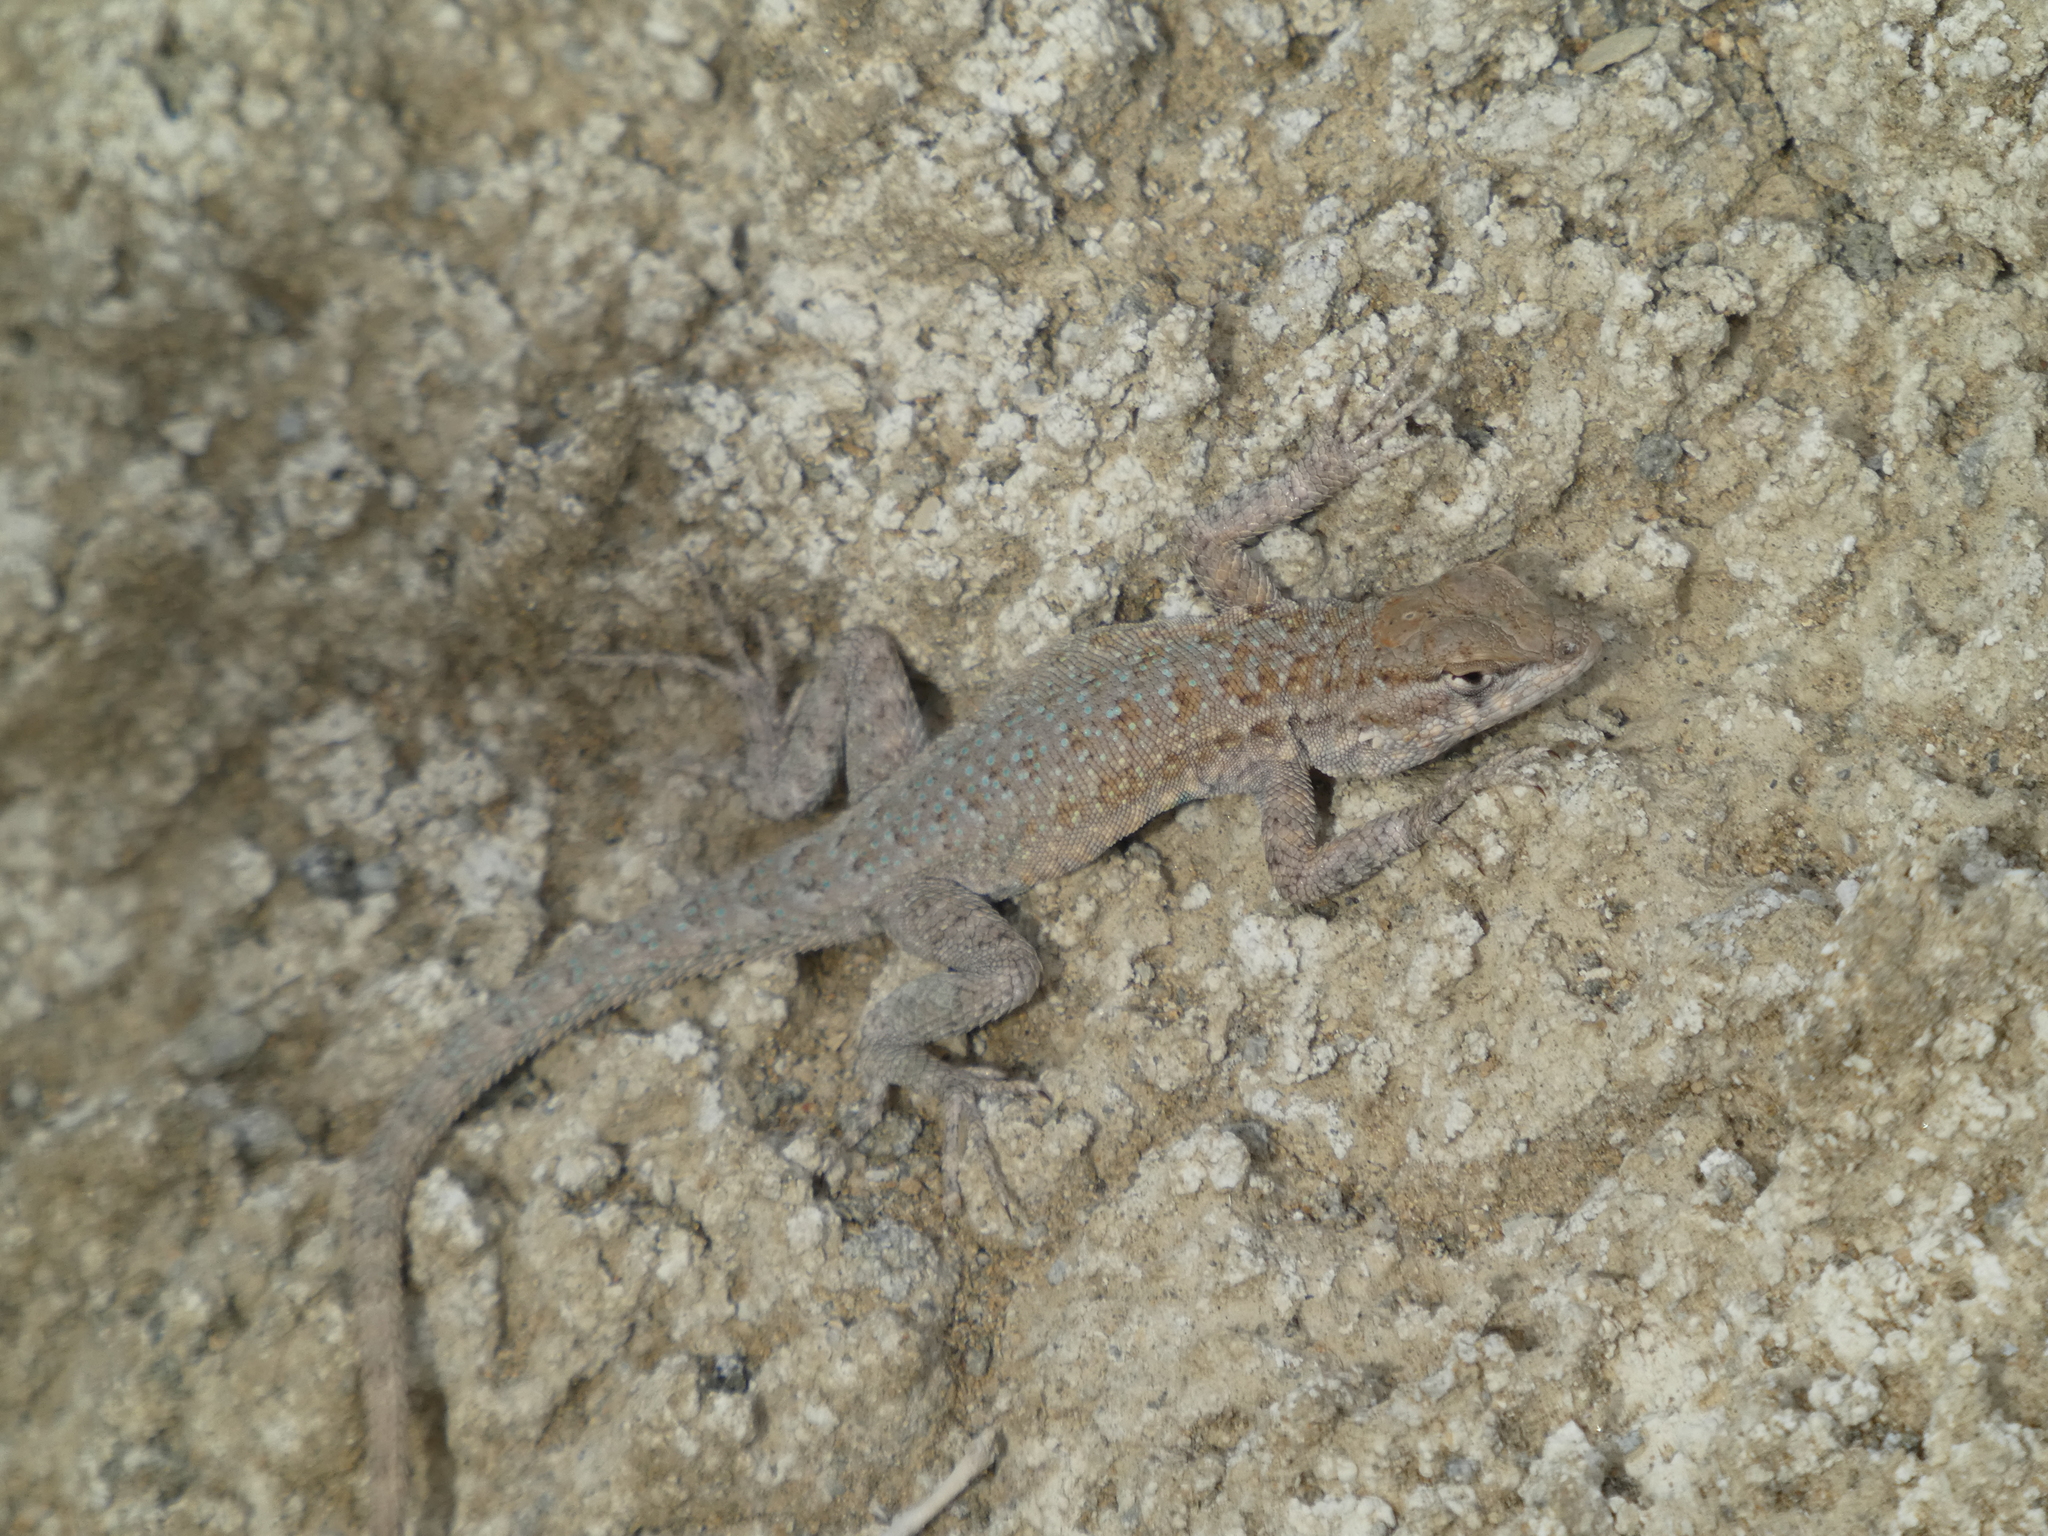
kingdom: Animalia
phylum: Chordata
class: Squamata
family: Phrynosomatidae
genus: Uta
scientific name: Uta stansburiana
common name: Side-blotched lizard
